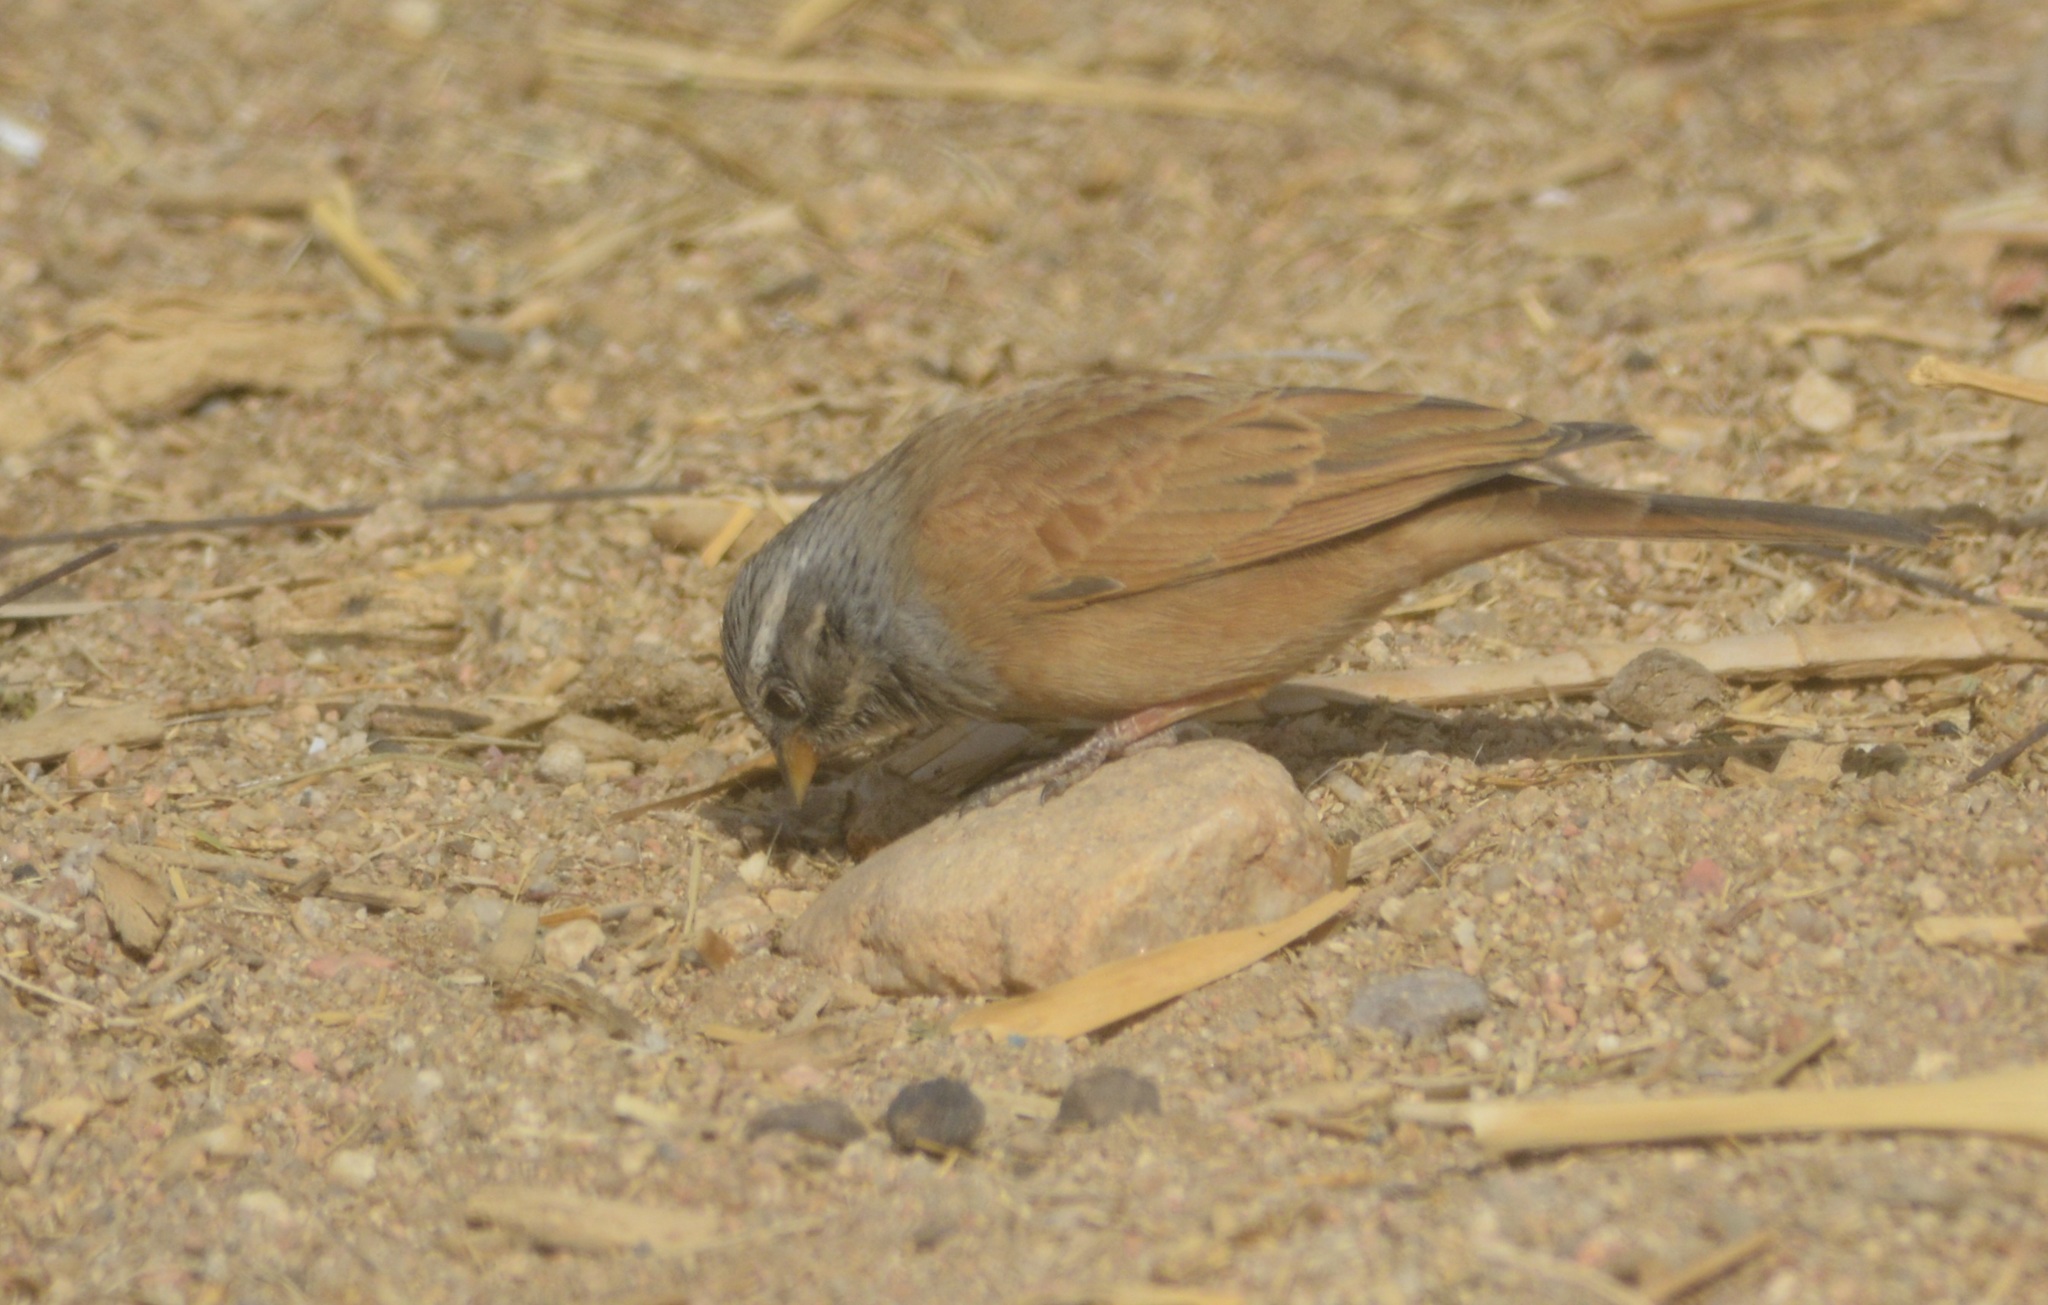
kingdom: Animalia
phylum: Chordata
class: Aves
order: Passeriformes
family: Emberizidae
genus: Emberiza
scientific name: Emberiza sahari
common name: House bunting
